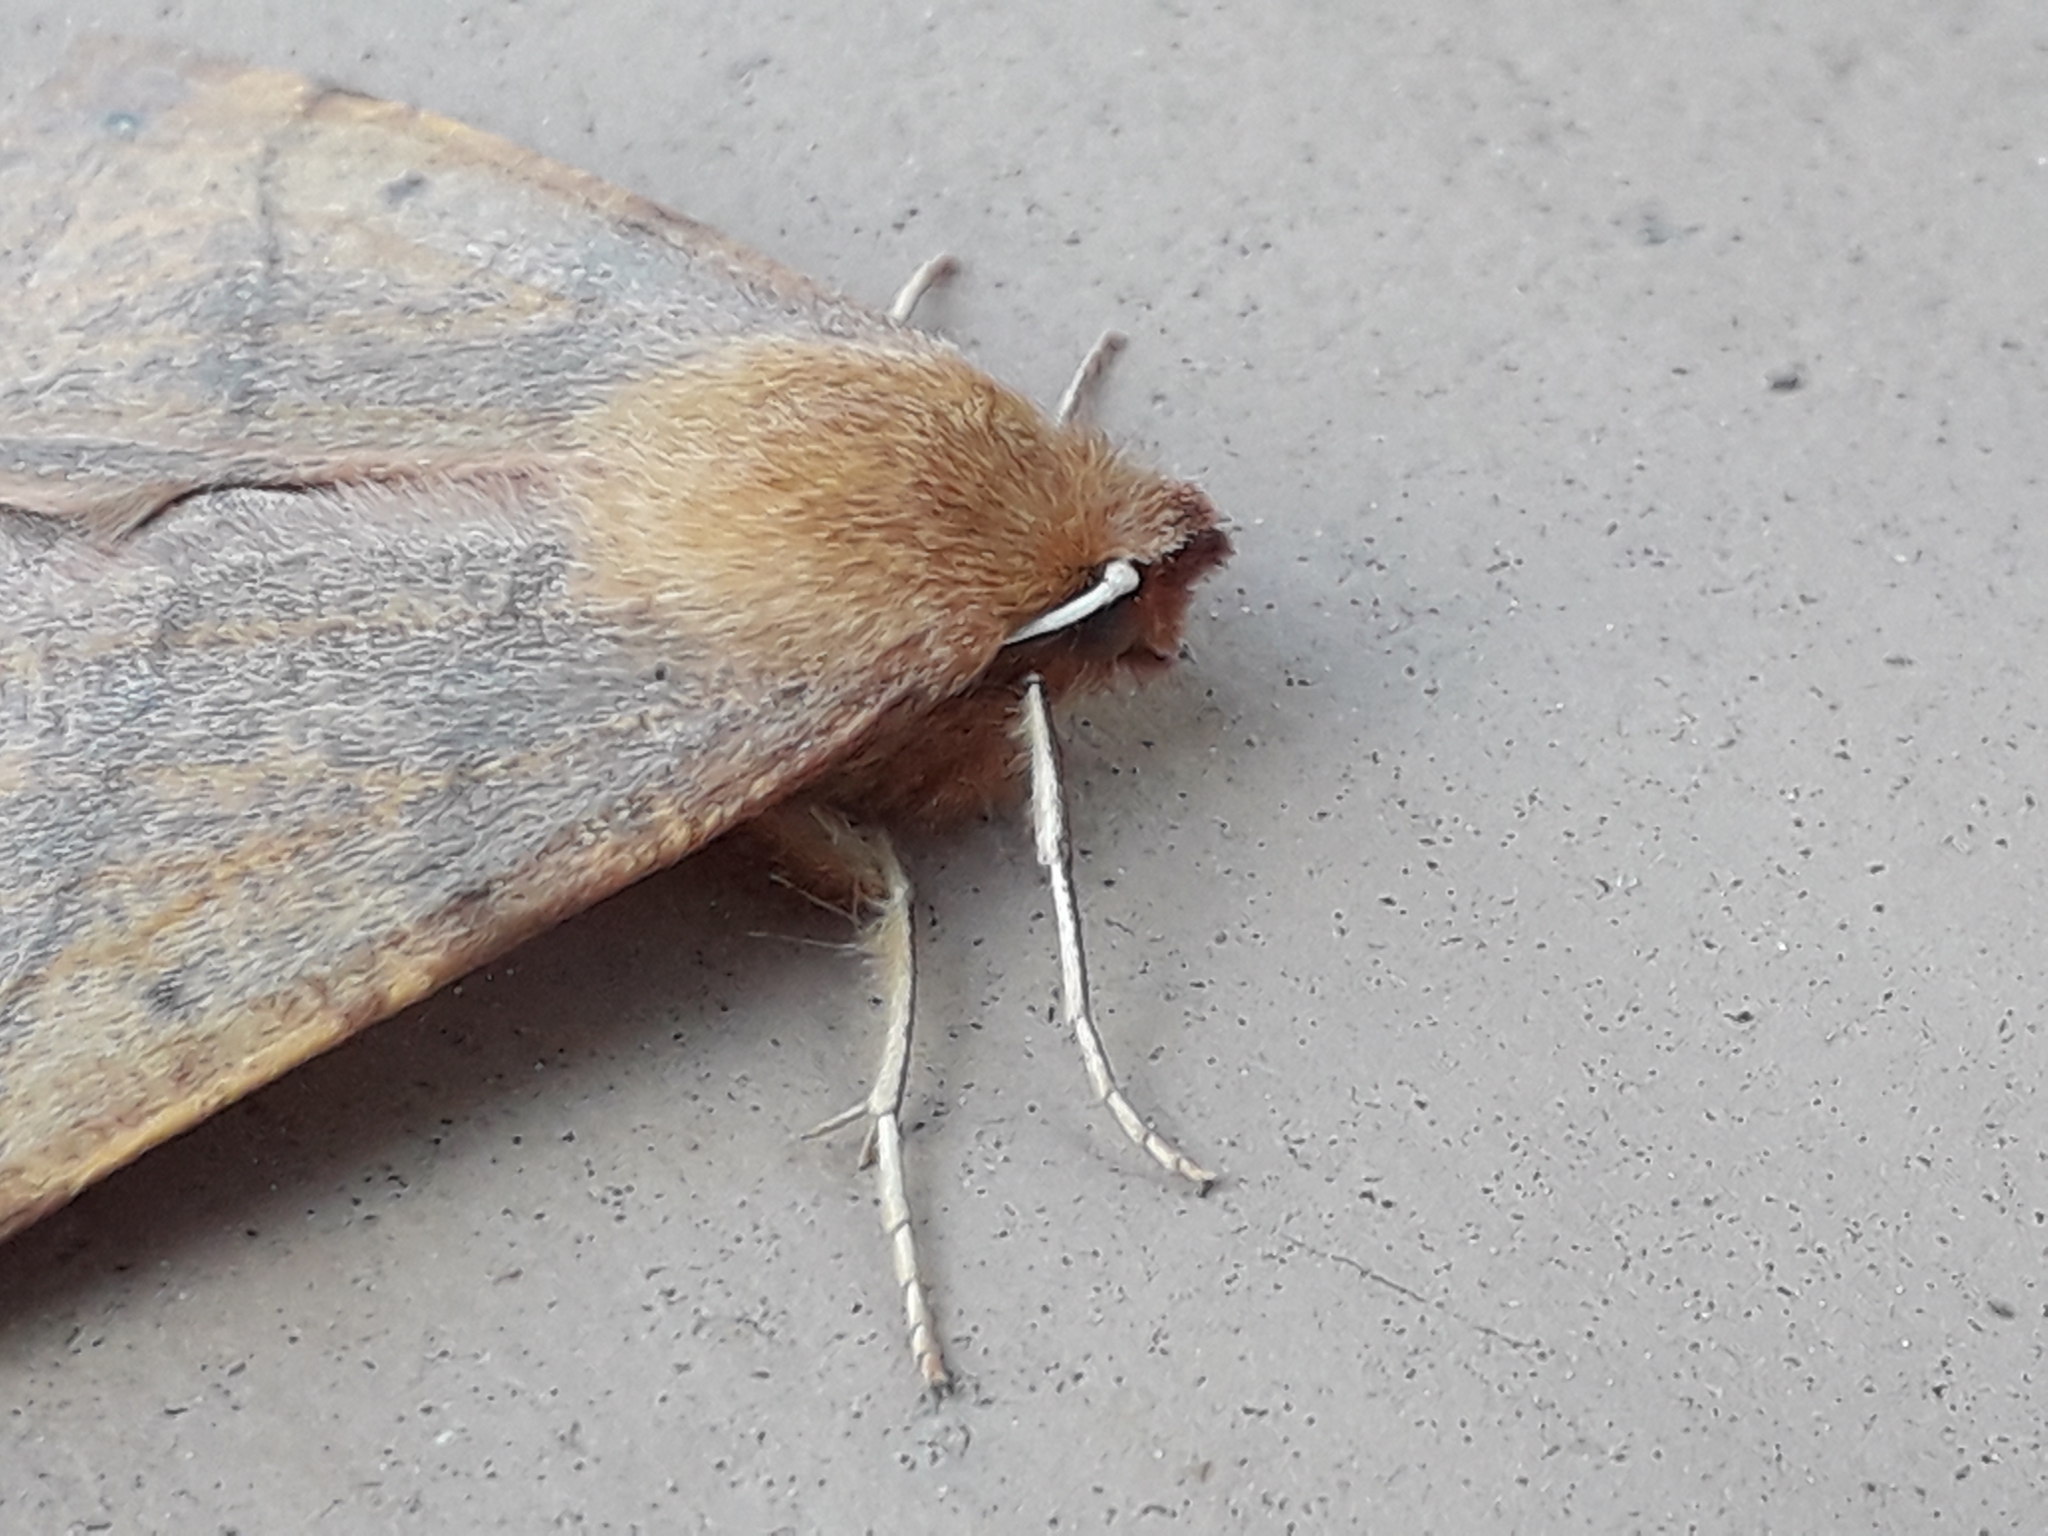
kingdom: Animalia
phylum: Arthropoda
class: Insecta
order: Lepidoptera
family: Geometridae
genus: Colotois
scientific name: Colotois pennaria
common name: Feathered thorn
